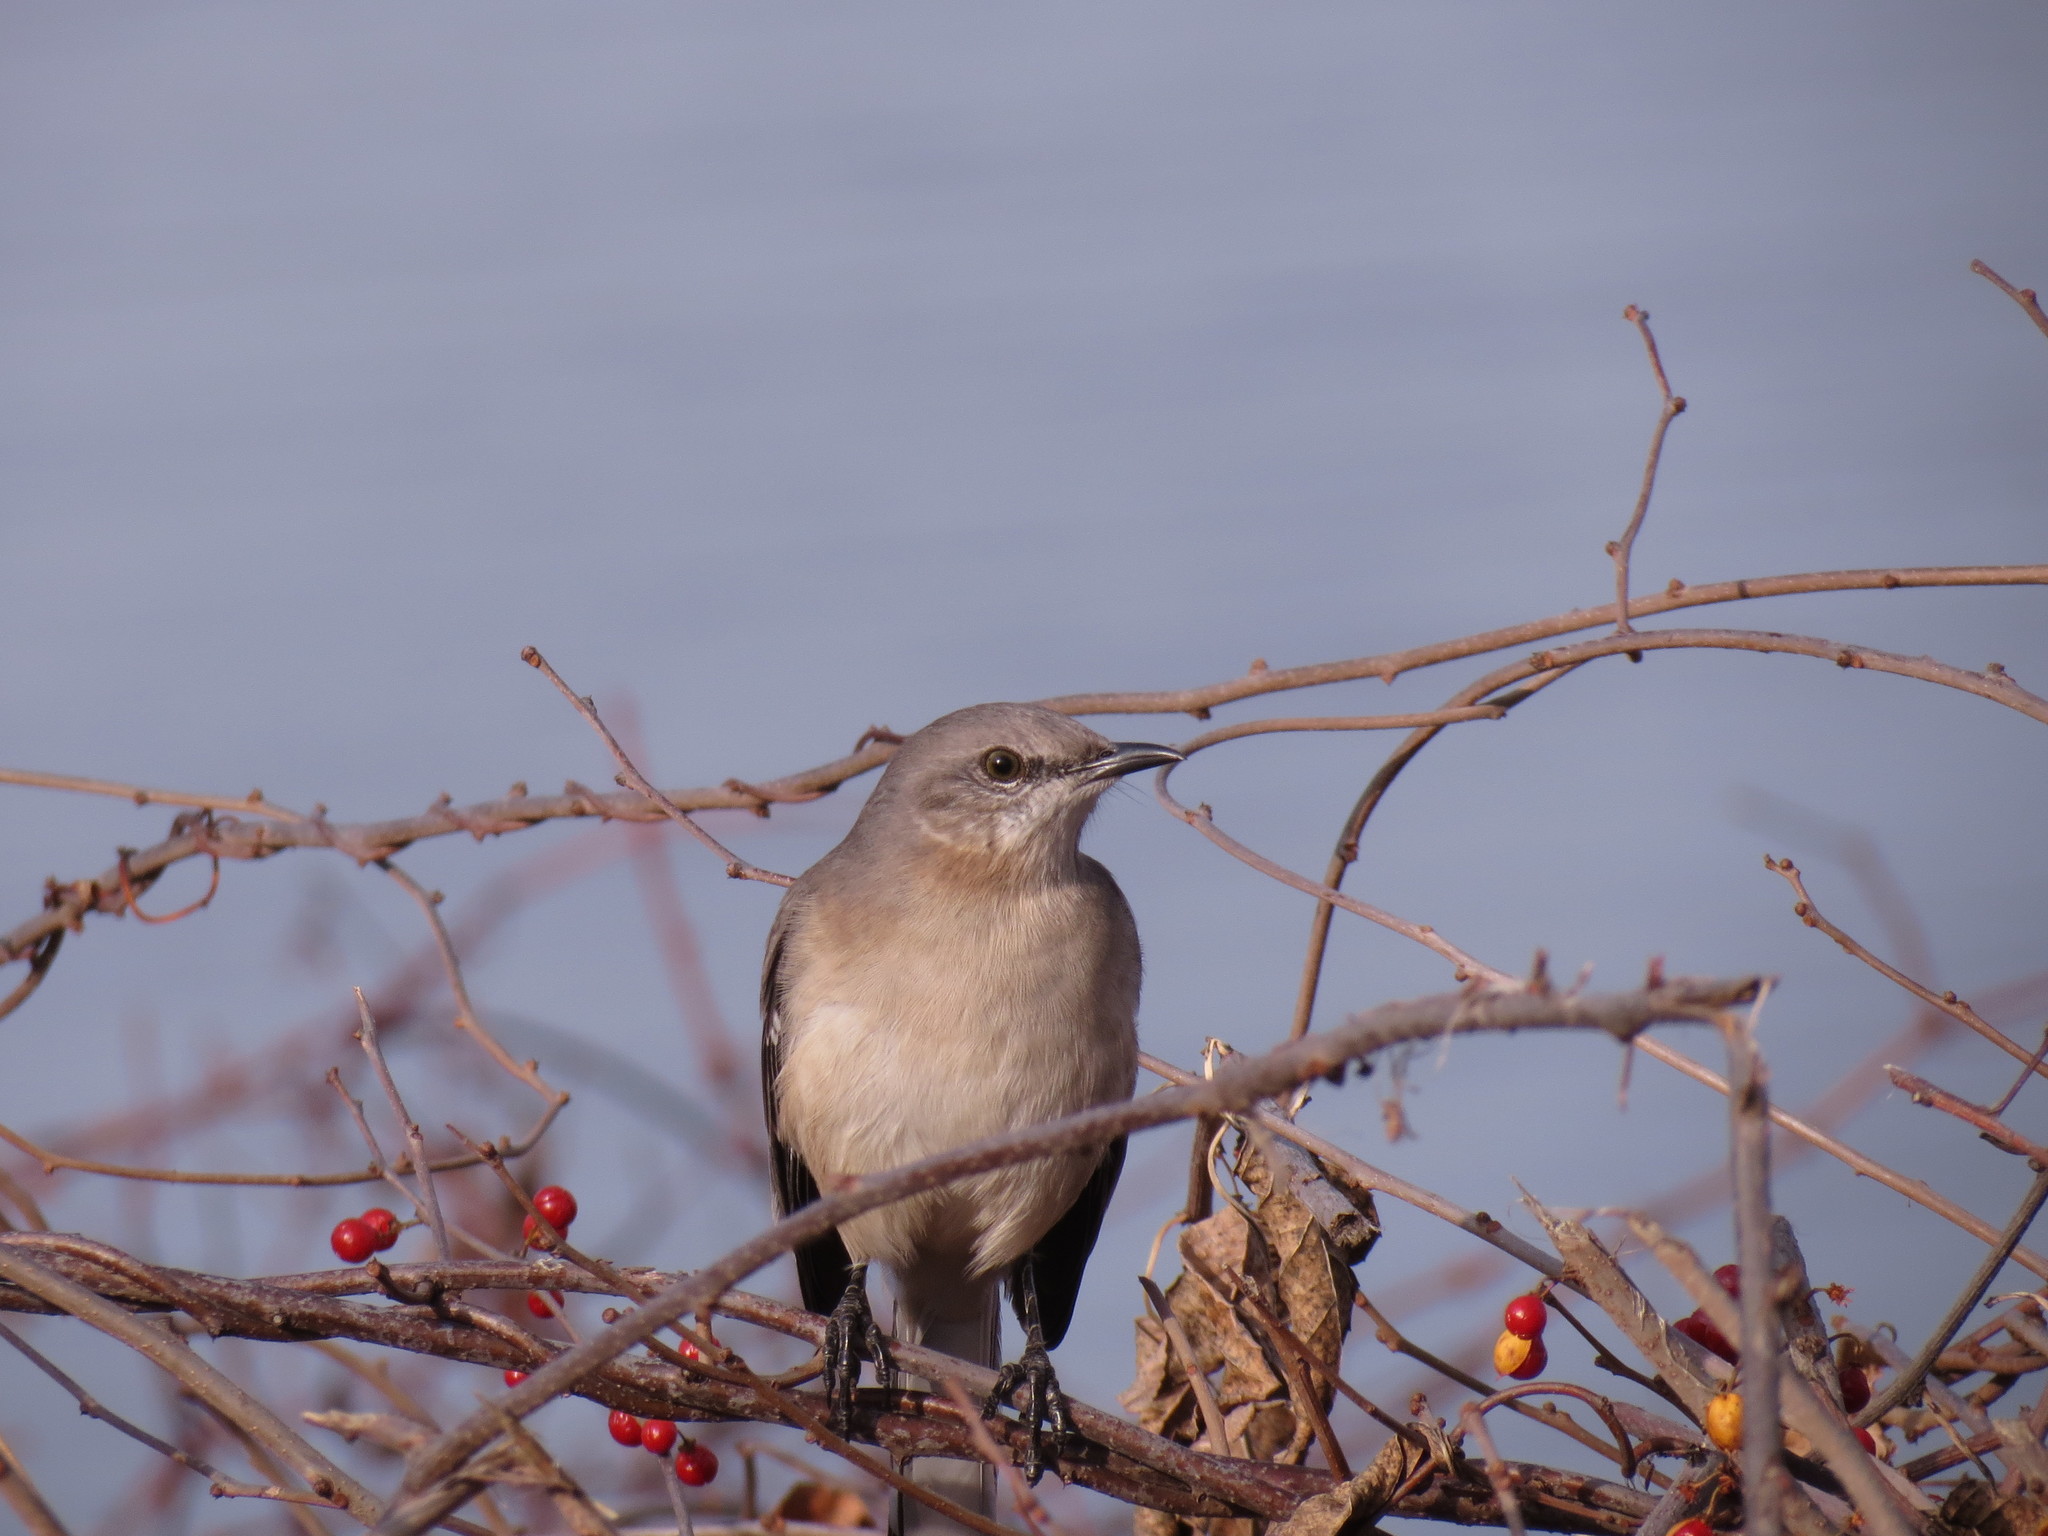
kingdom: Animalia
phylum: Chordata
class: Aves
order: Passeriformes
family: Mimidae
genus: Mimus
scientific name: Mimus polyglottos
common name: Northern mockingbird
